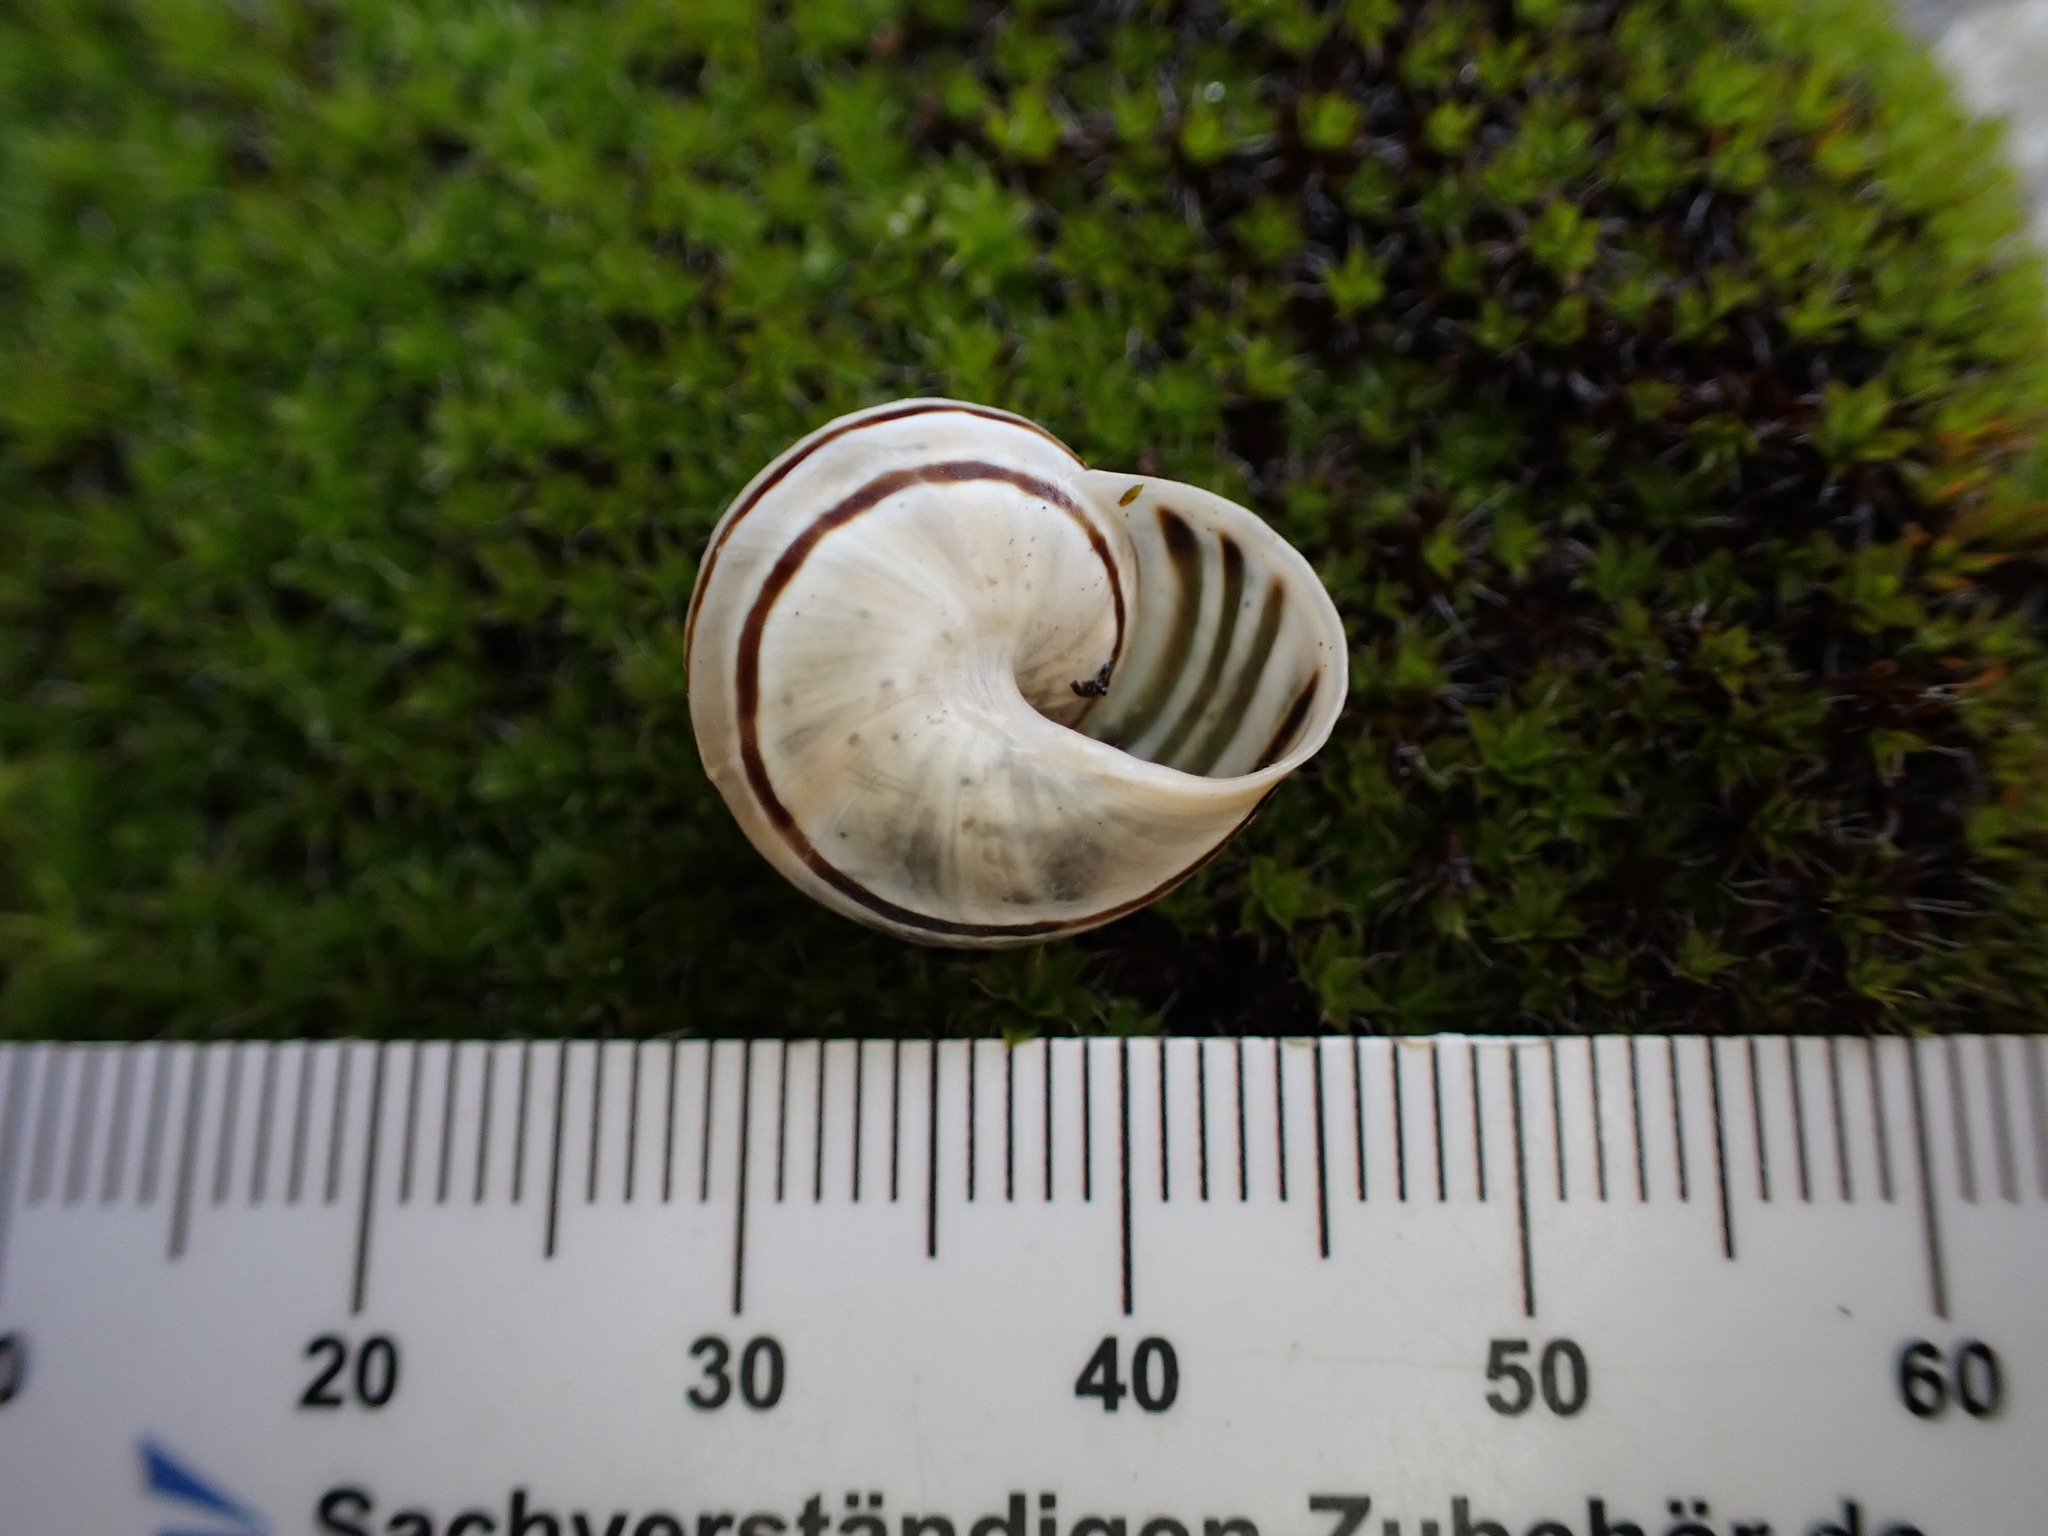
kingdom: Animalia
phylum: Mollusca
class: Gastropoda
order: Stylommatophora
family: Helicidae
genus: Pseudotachea
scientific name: Pseudotachea splendida
